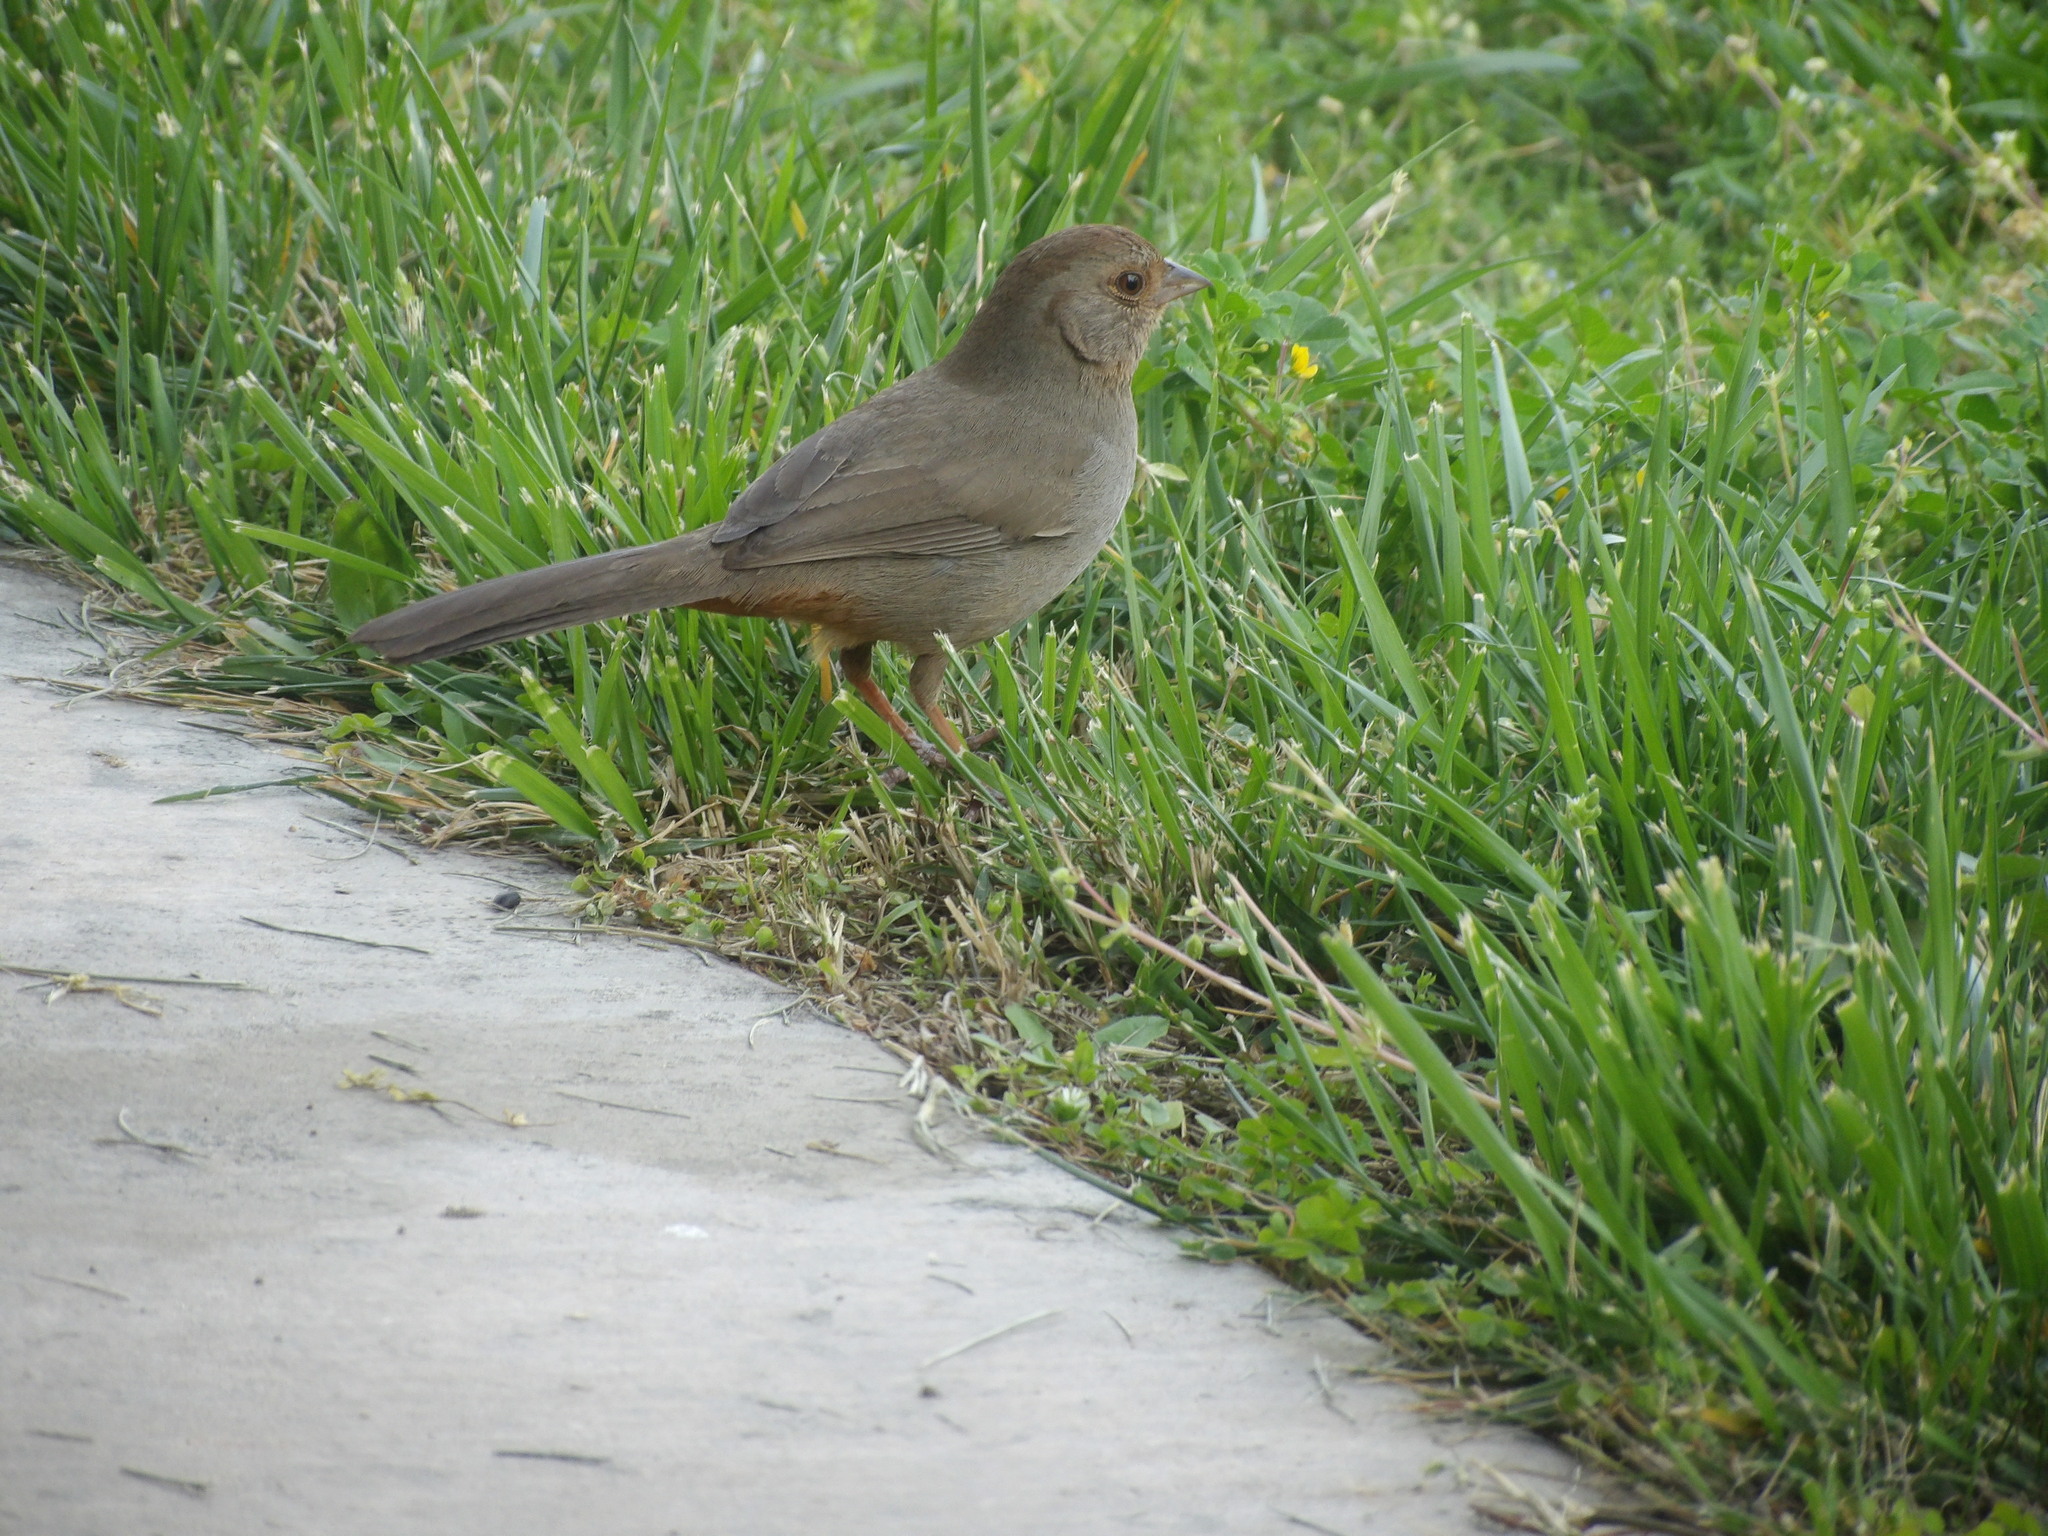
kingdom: Animalia
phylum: Chordata
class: Aves
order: Passeriformes
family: Passerellidae
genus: Melozone
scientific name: Melozone crissalis
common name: California towhee
